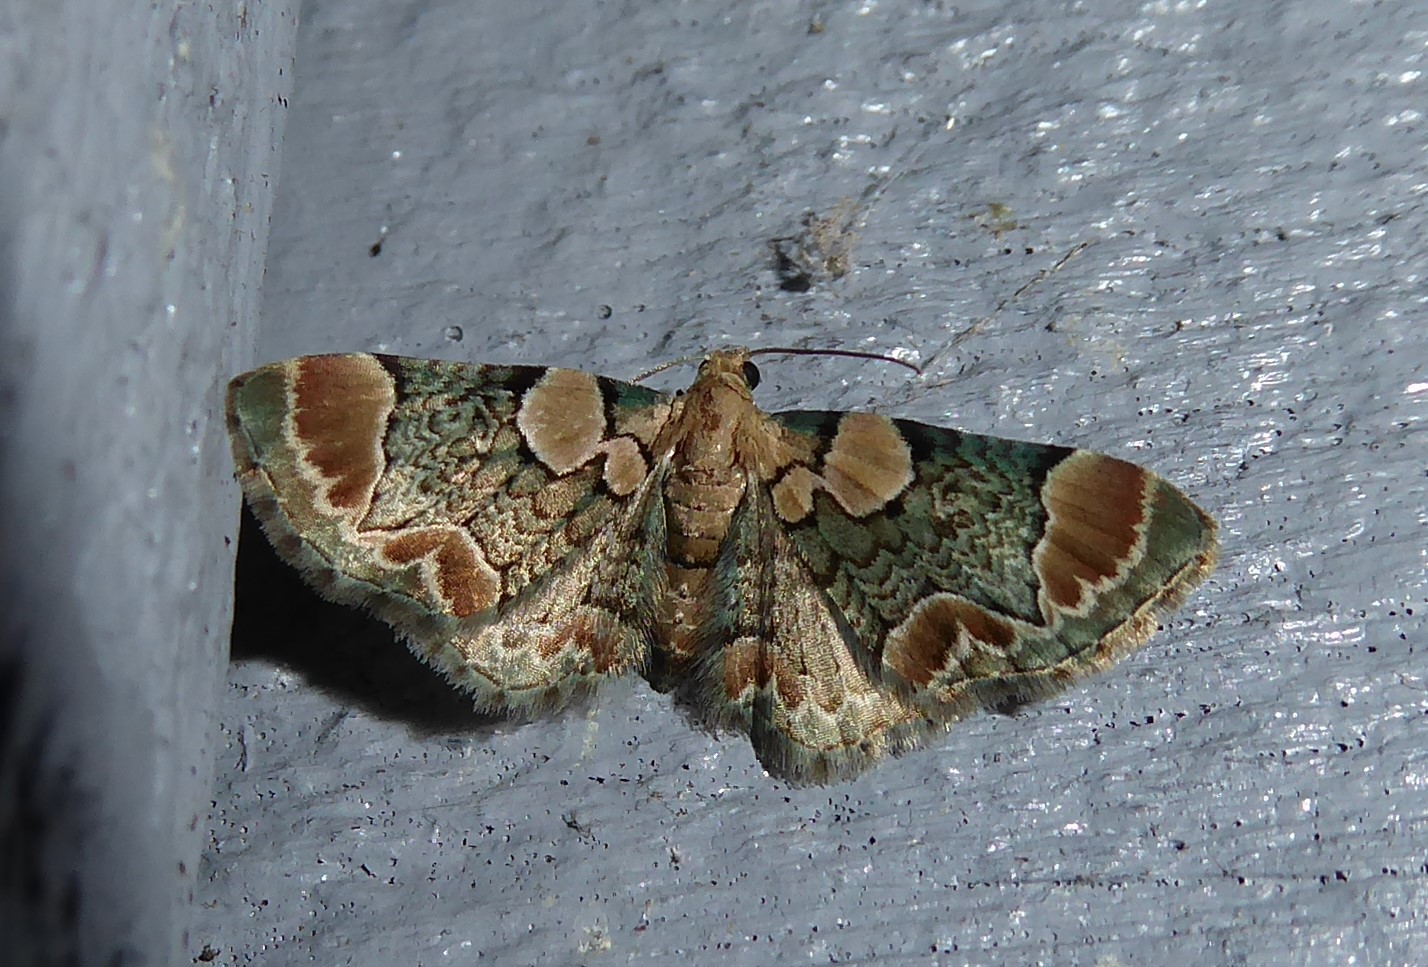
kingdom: Animalia
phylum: Arthropoda
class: Insecta
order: Lepidoptera
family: Geometridae
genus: Chloroclystis
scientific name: Chloroclystis
